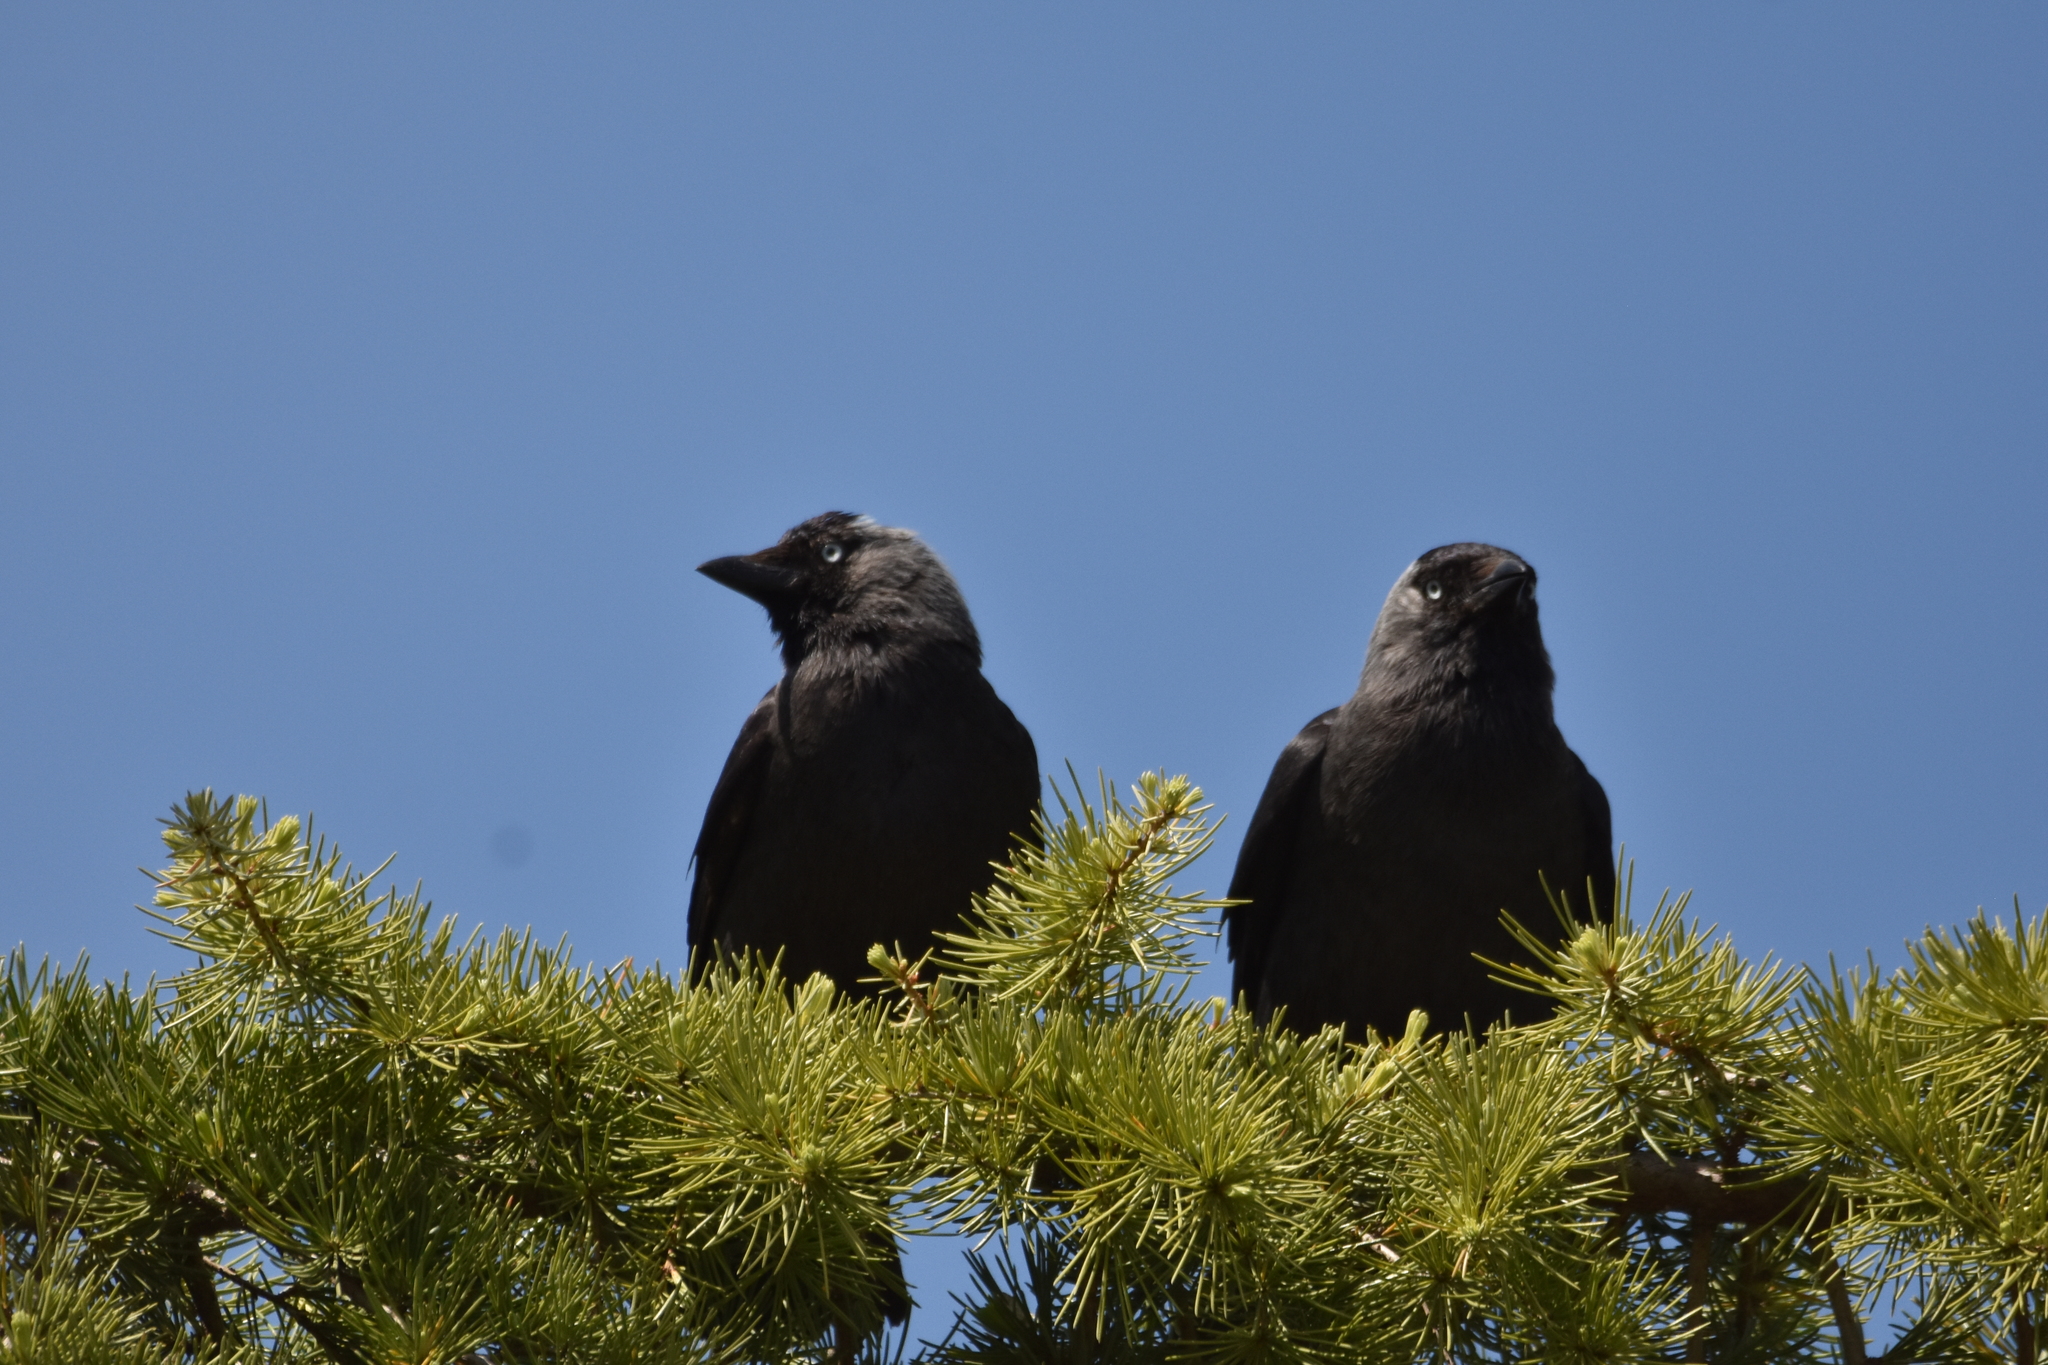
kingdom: Animalia
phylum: Chordata
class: Aves
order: Passeriformes
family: Corvidae
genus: Coloeus
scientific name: Coloeus monedula
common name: Western jackdaw
